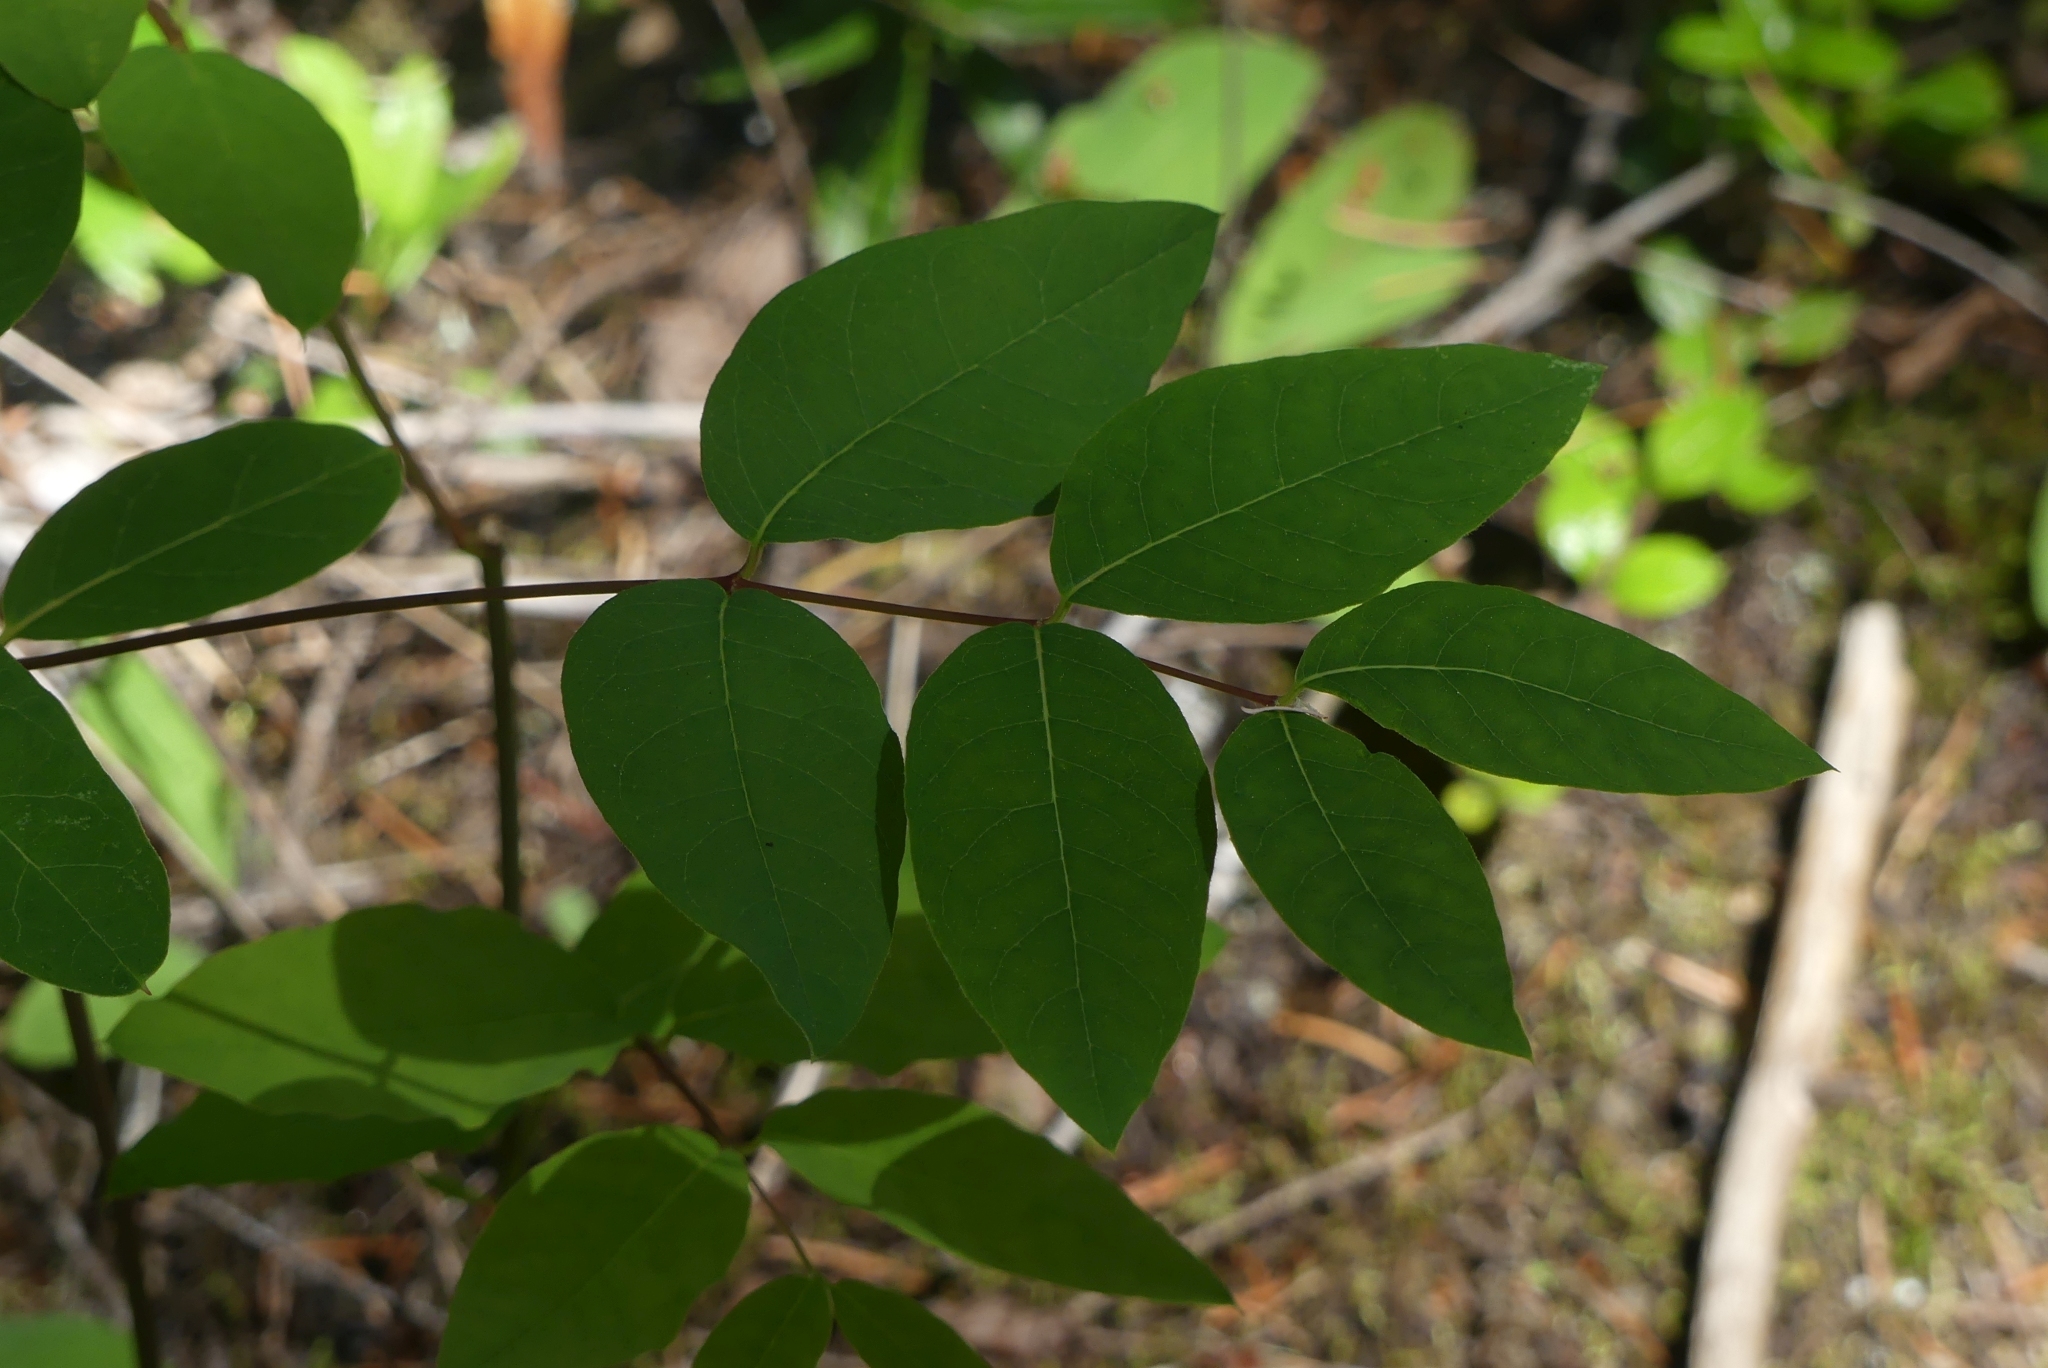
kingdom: Plantae
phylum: Tracheophyta
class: Magnoliopsida
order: Gentianales
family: Apocynaceae
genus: Apocynum
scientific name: Apocynum androsaemifolium
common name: Spreading dogbane
